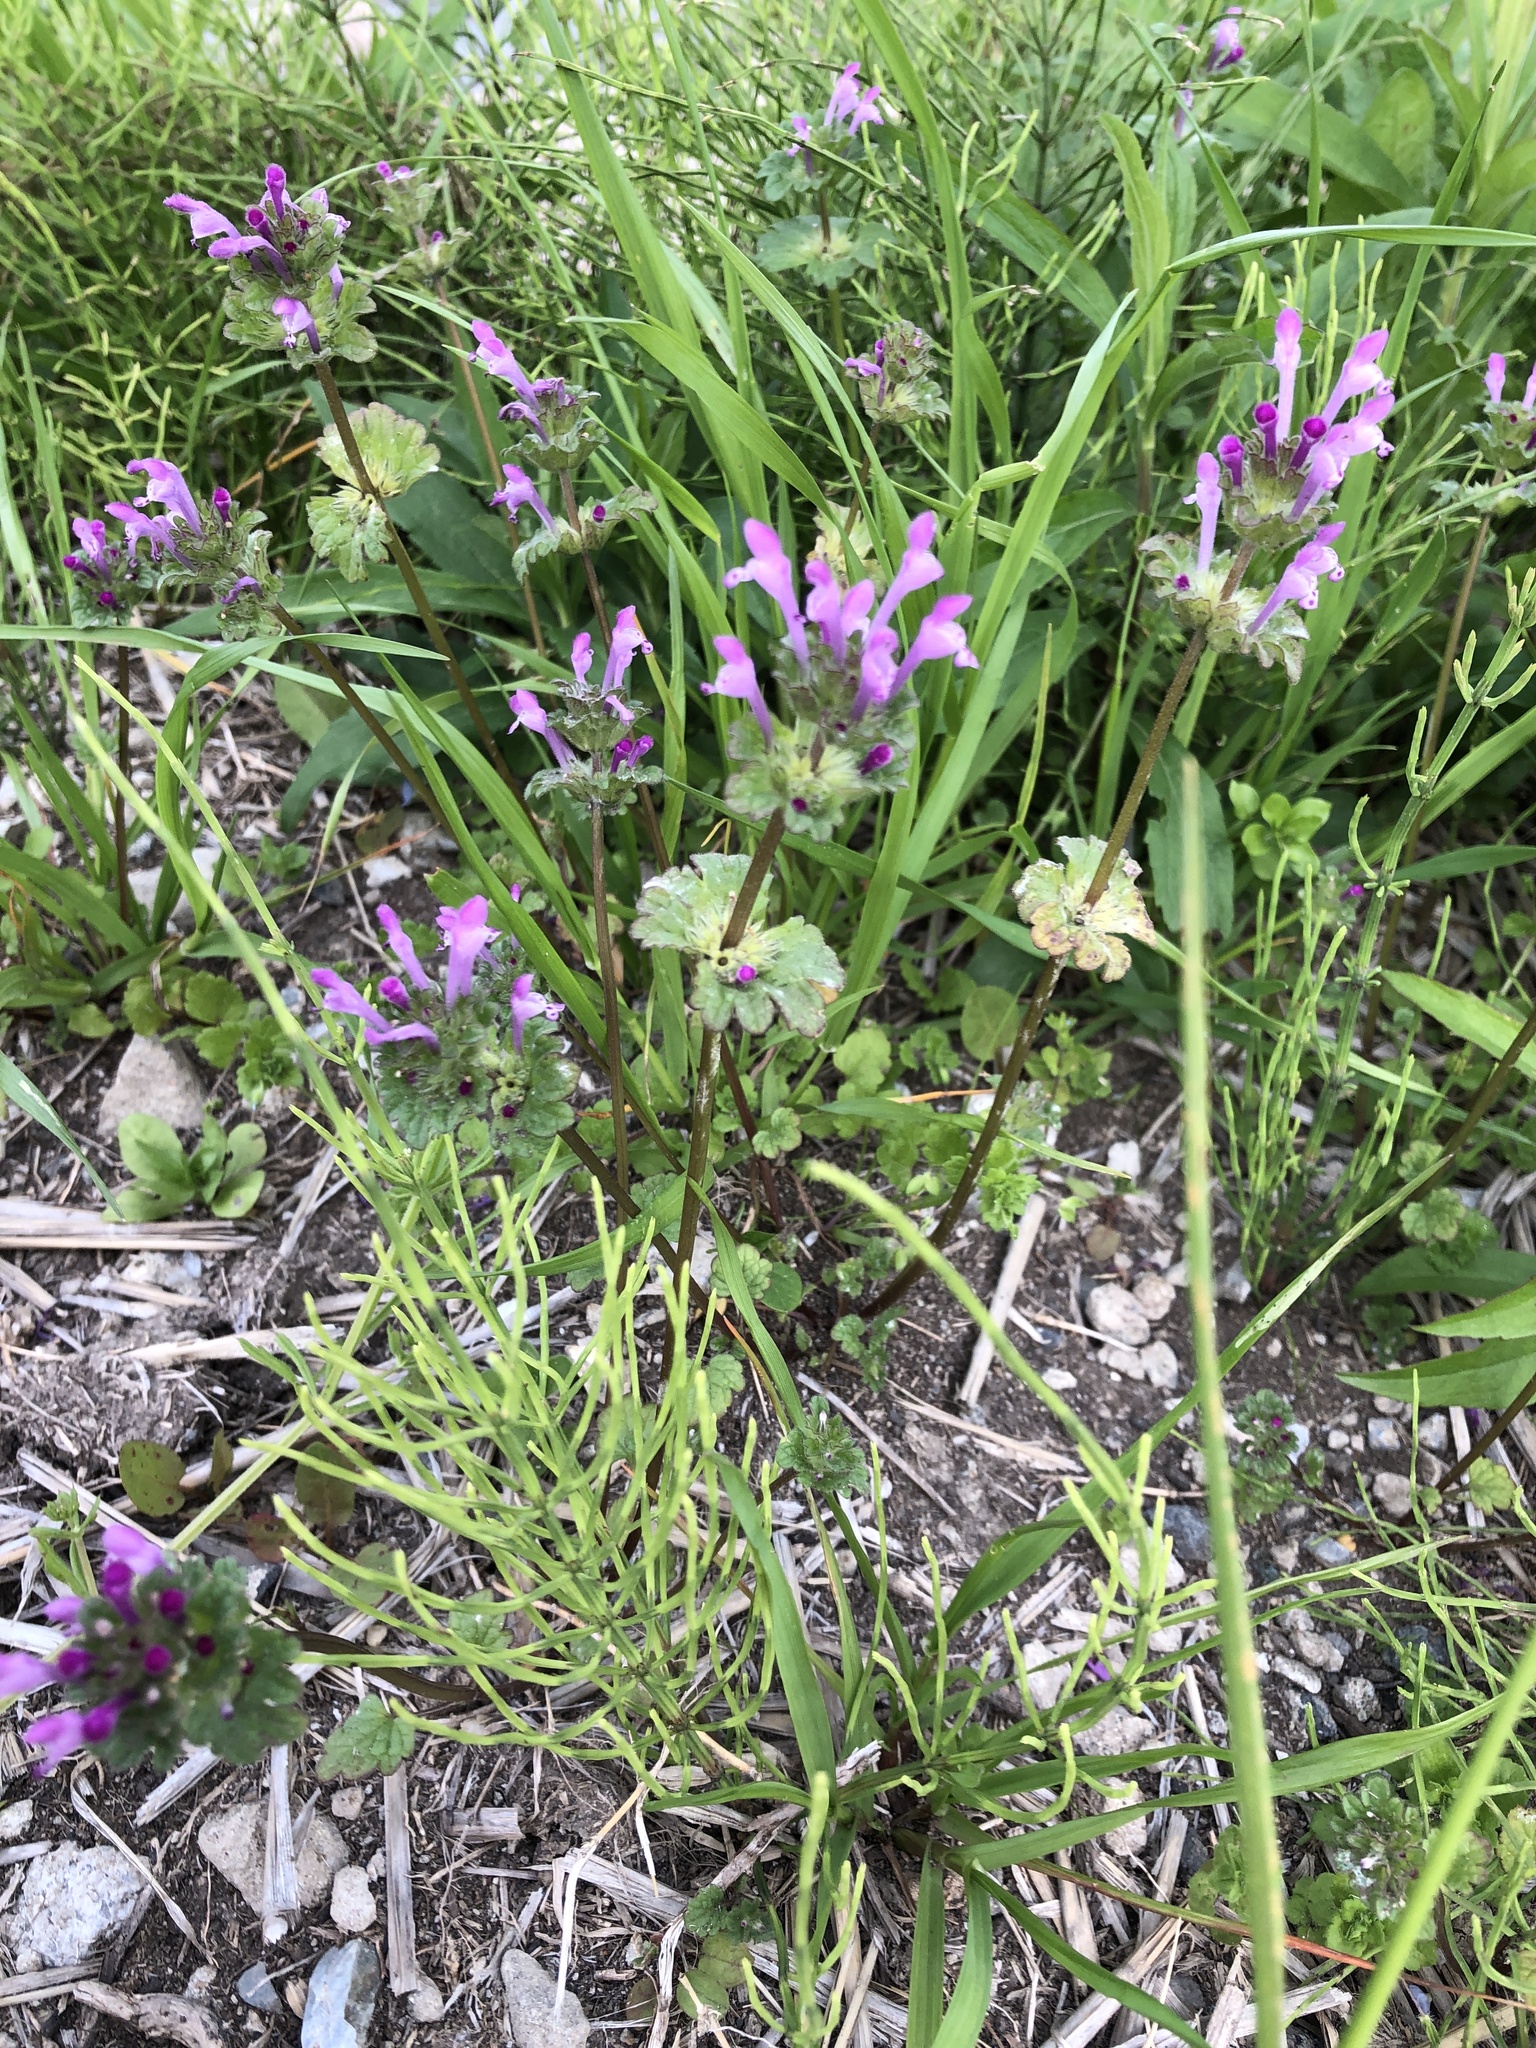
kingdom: Plantae
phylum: Tracheophyta
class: Magnoliopsida
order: Lamiales
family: Lamiaceae
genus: Lamium
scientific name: Lamium amplexicaule
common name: Henbit dead-nettle
